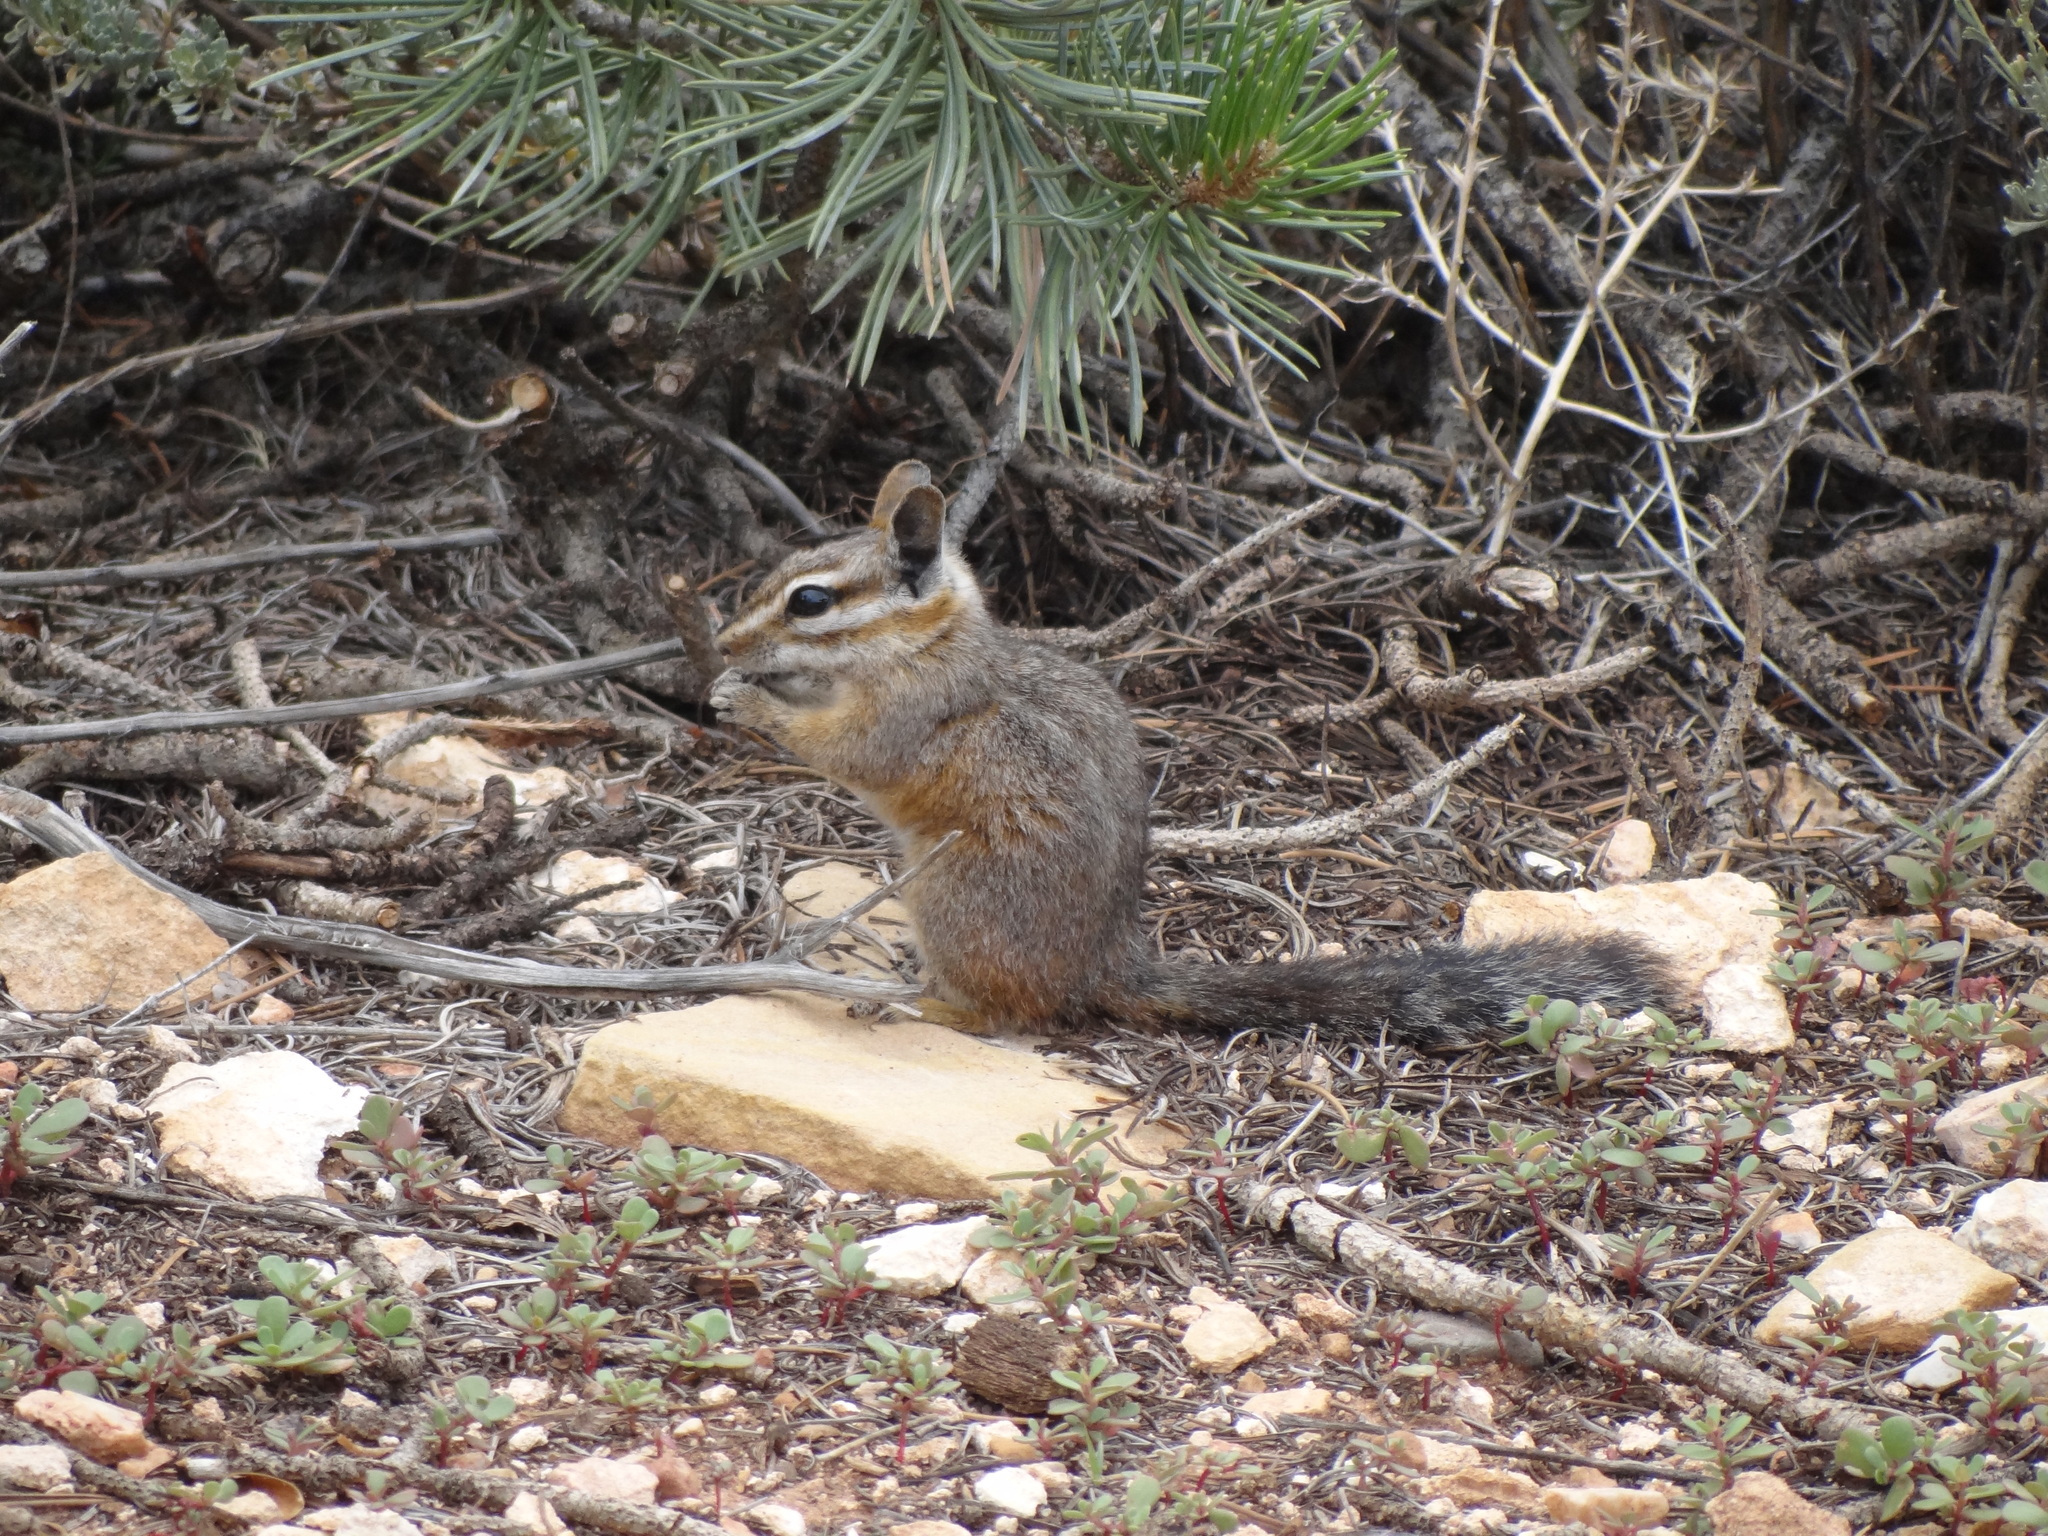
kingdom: Animalia
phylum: Chordata
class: Mammalia
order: Rodentia
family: Sciuridae
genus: Tamias
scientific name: Tamias dorsalis
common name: Cliff chipmunk
